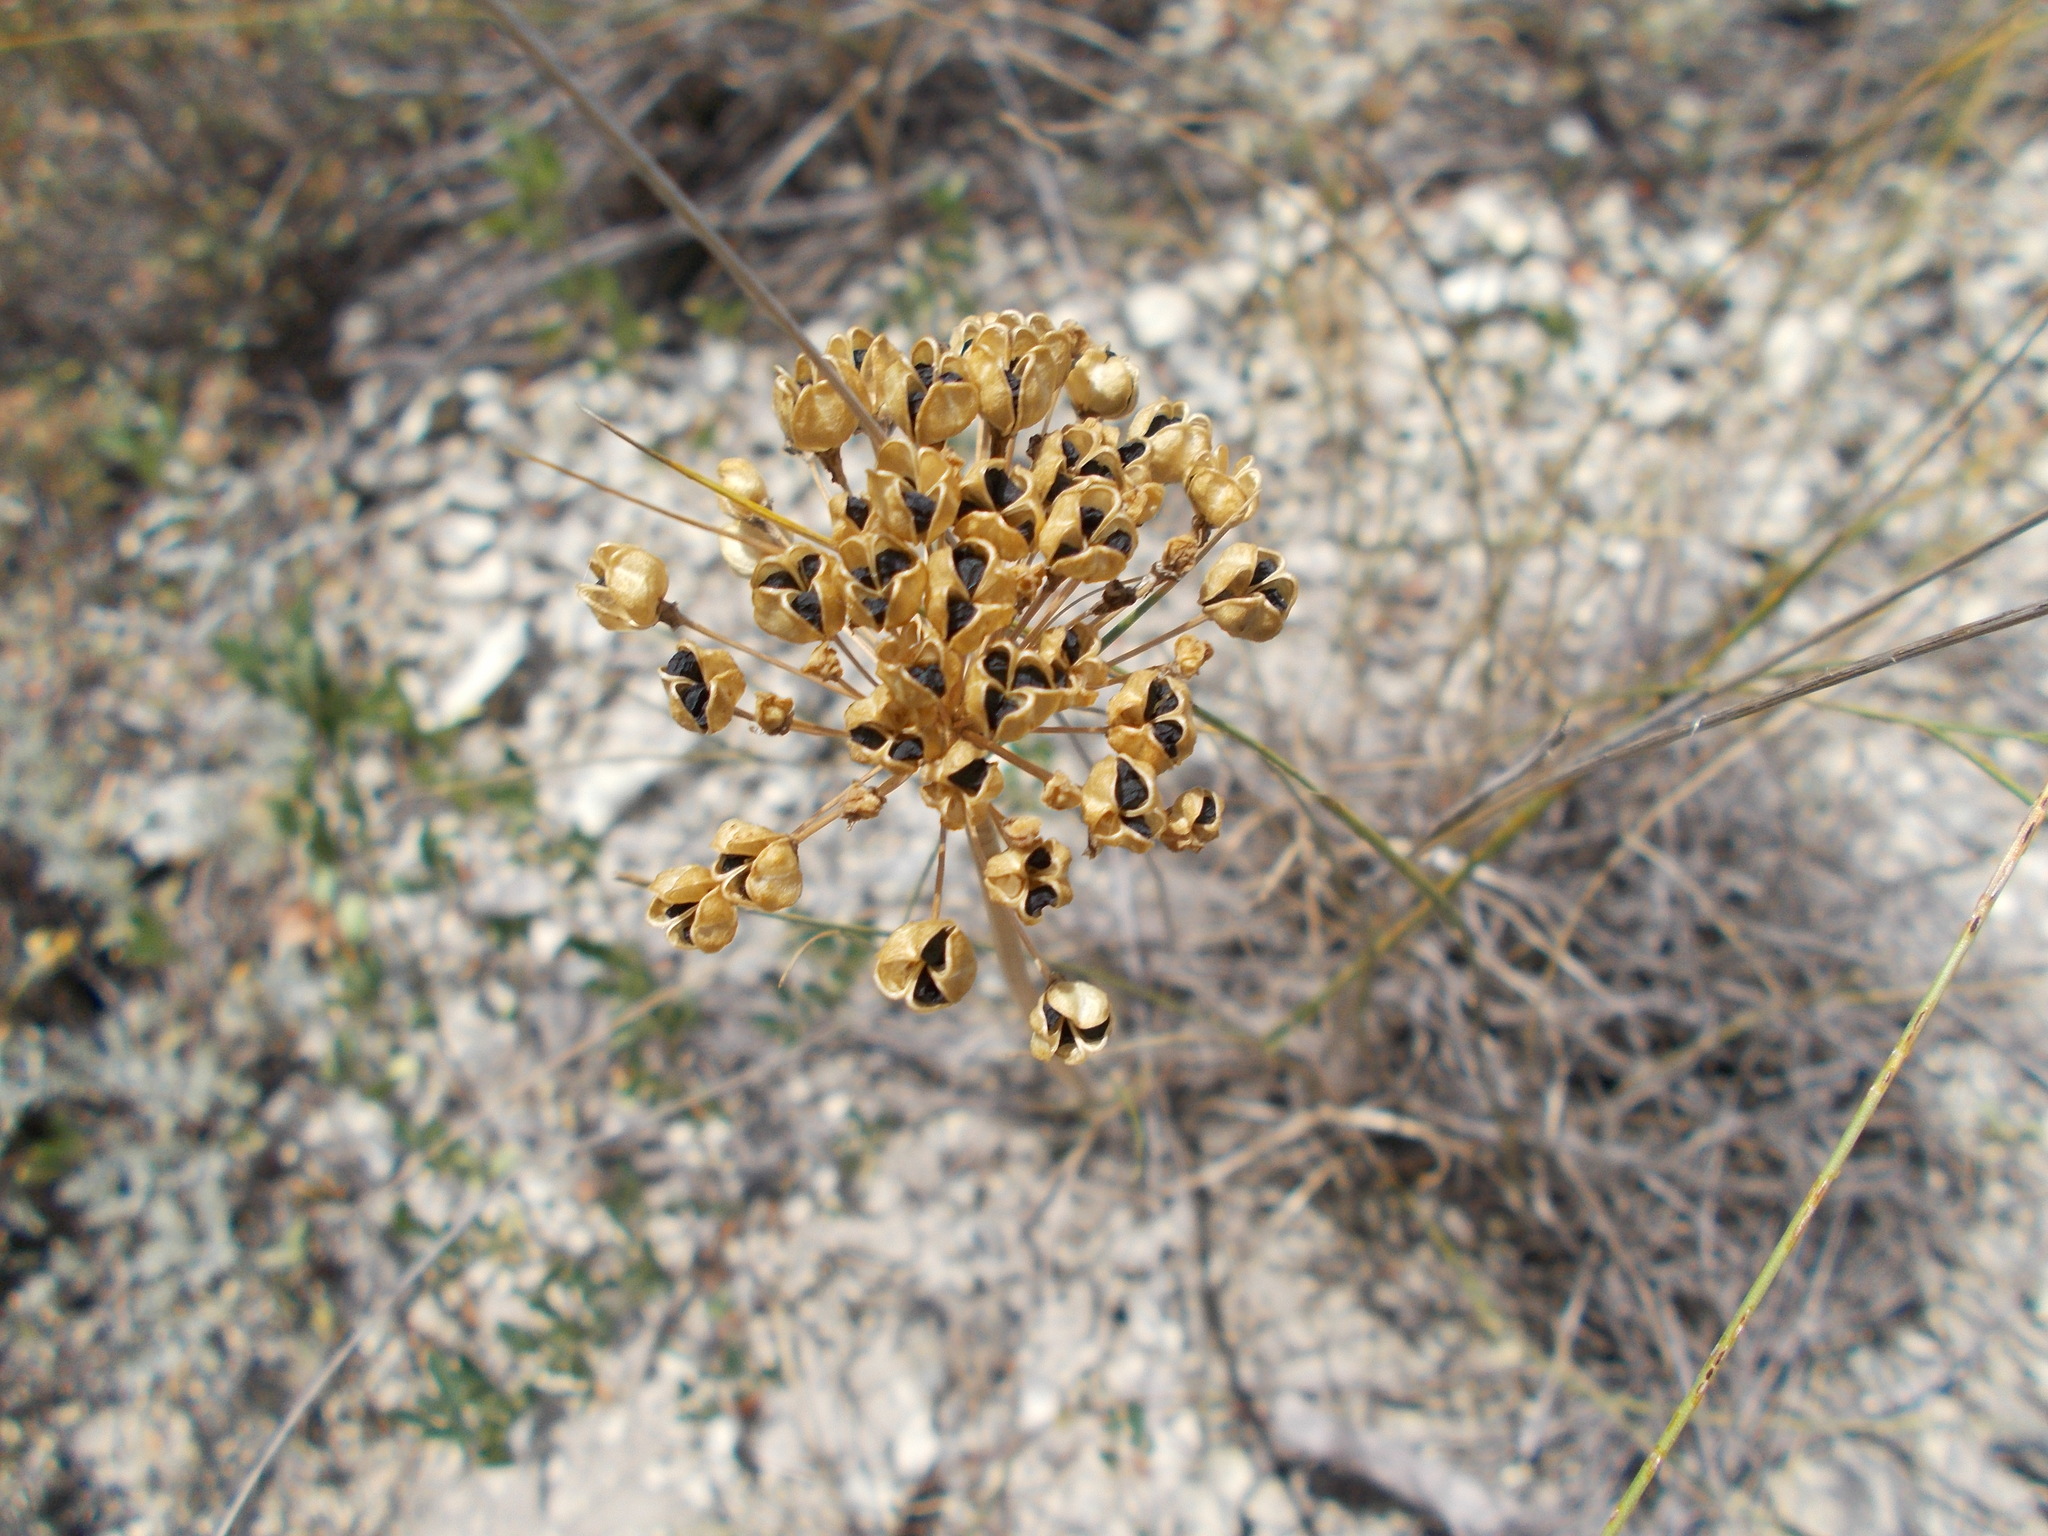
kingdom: Plantae
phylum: Tracheophyta
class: Liliopsida
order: Asparagales
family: Amaryllidaceae
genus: Allium
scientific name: Allium tulipifolium
